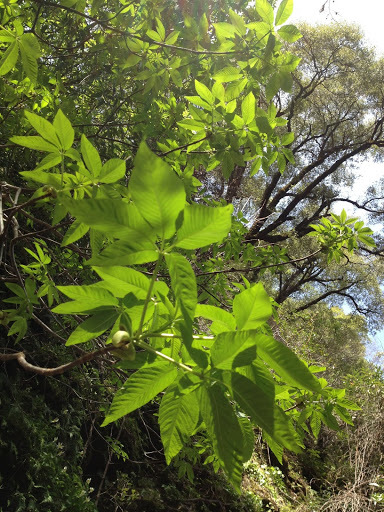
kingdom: Plantae
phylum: Tracheophyta
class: Magnoliopsida
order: Sapindales
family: Sapindaceae
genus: Aesculus
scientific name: Aesculus californica
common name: California buckeye
